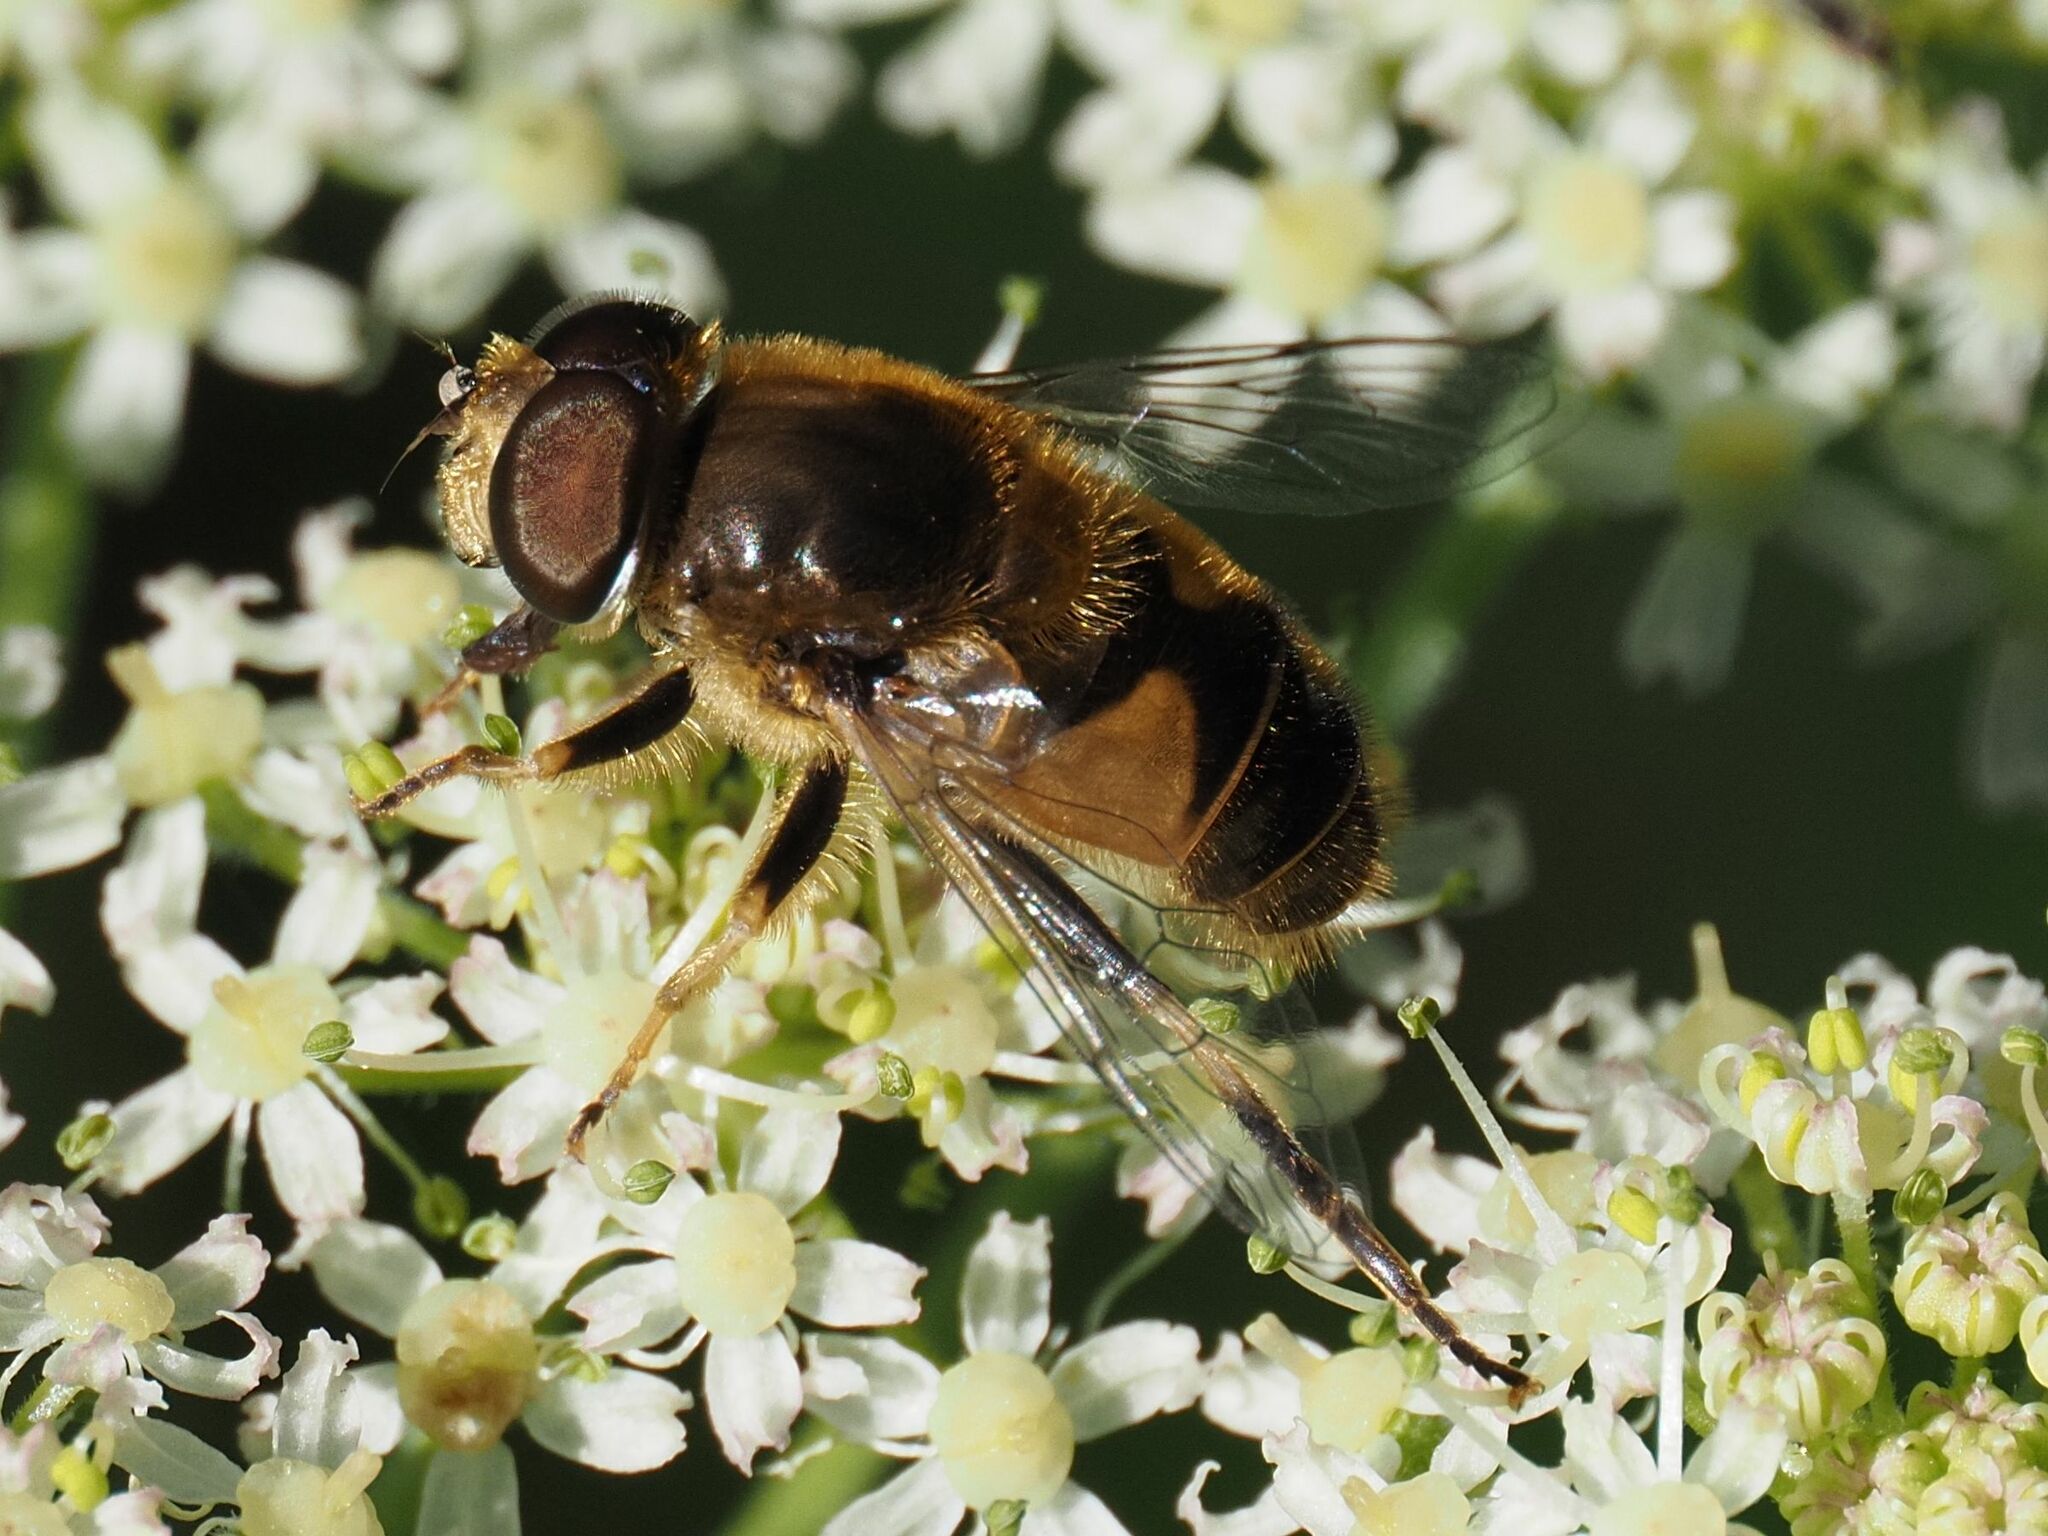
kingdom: Animalia
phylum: Arthropoda
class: Insecta
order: Diptera
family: Syrphidae
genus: Eristalis
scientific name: Eristalis nemorum
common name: Orange-spined drone fly
